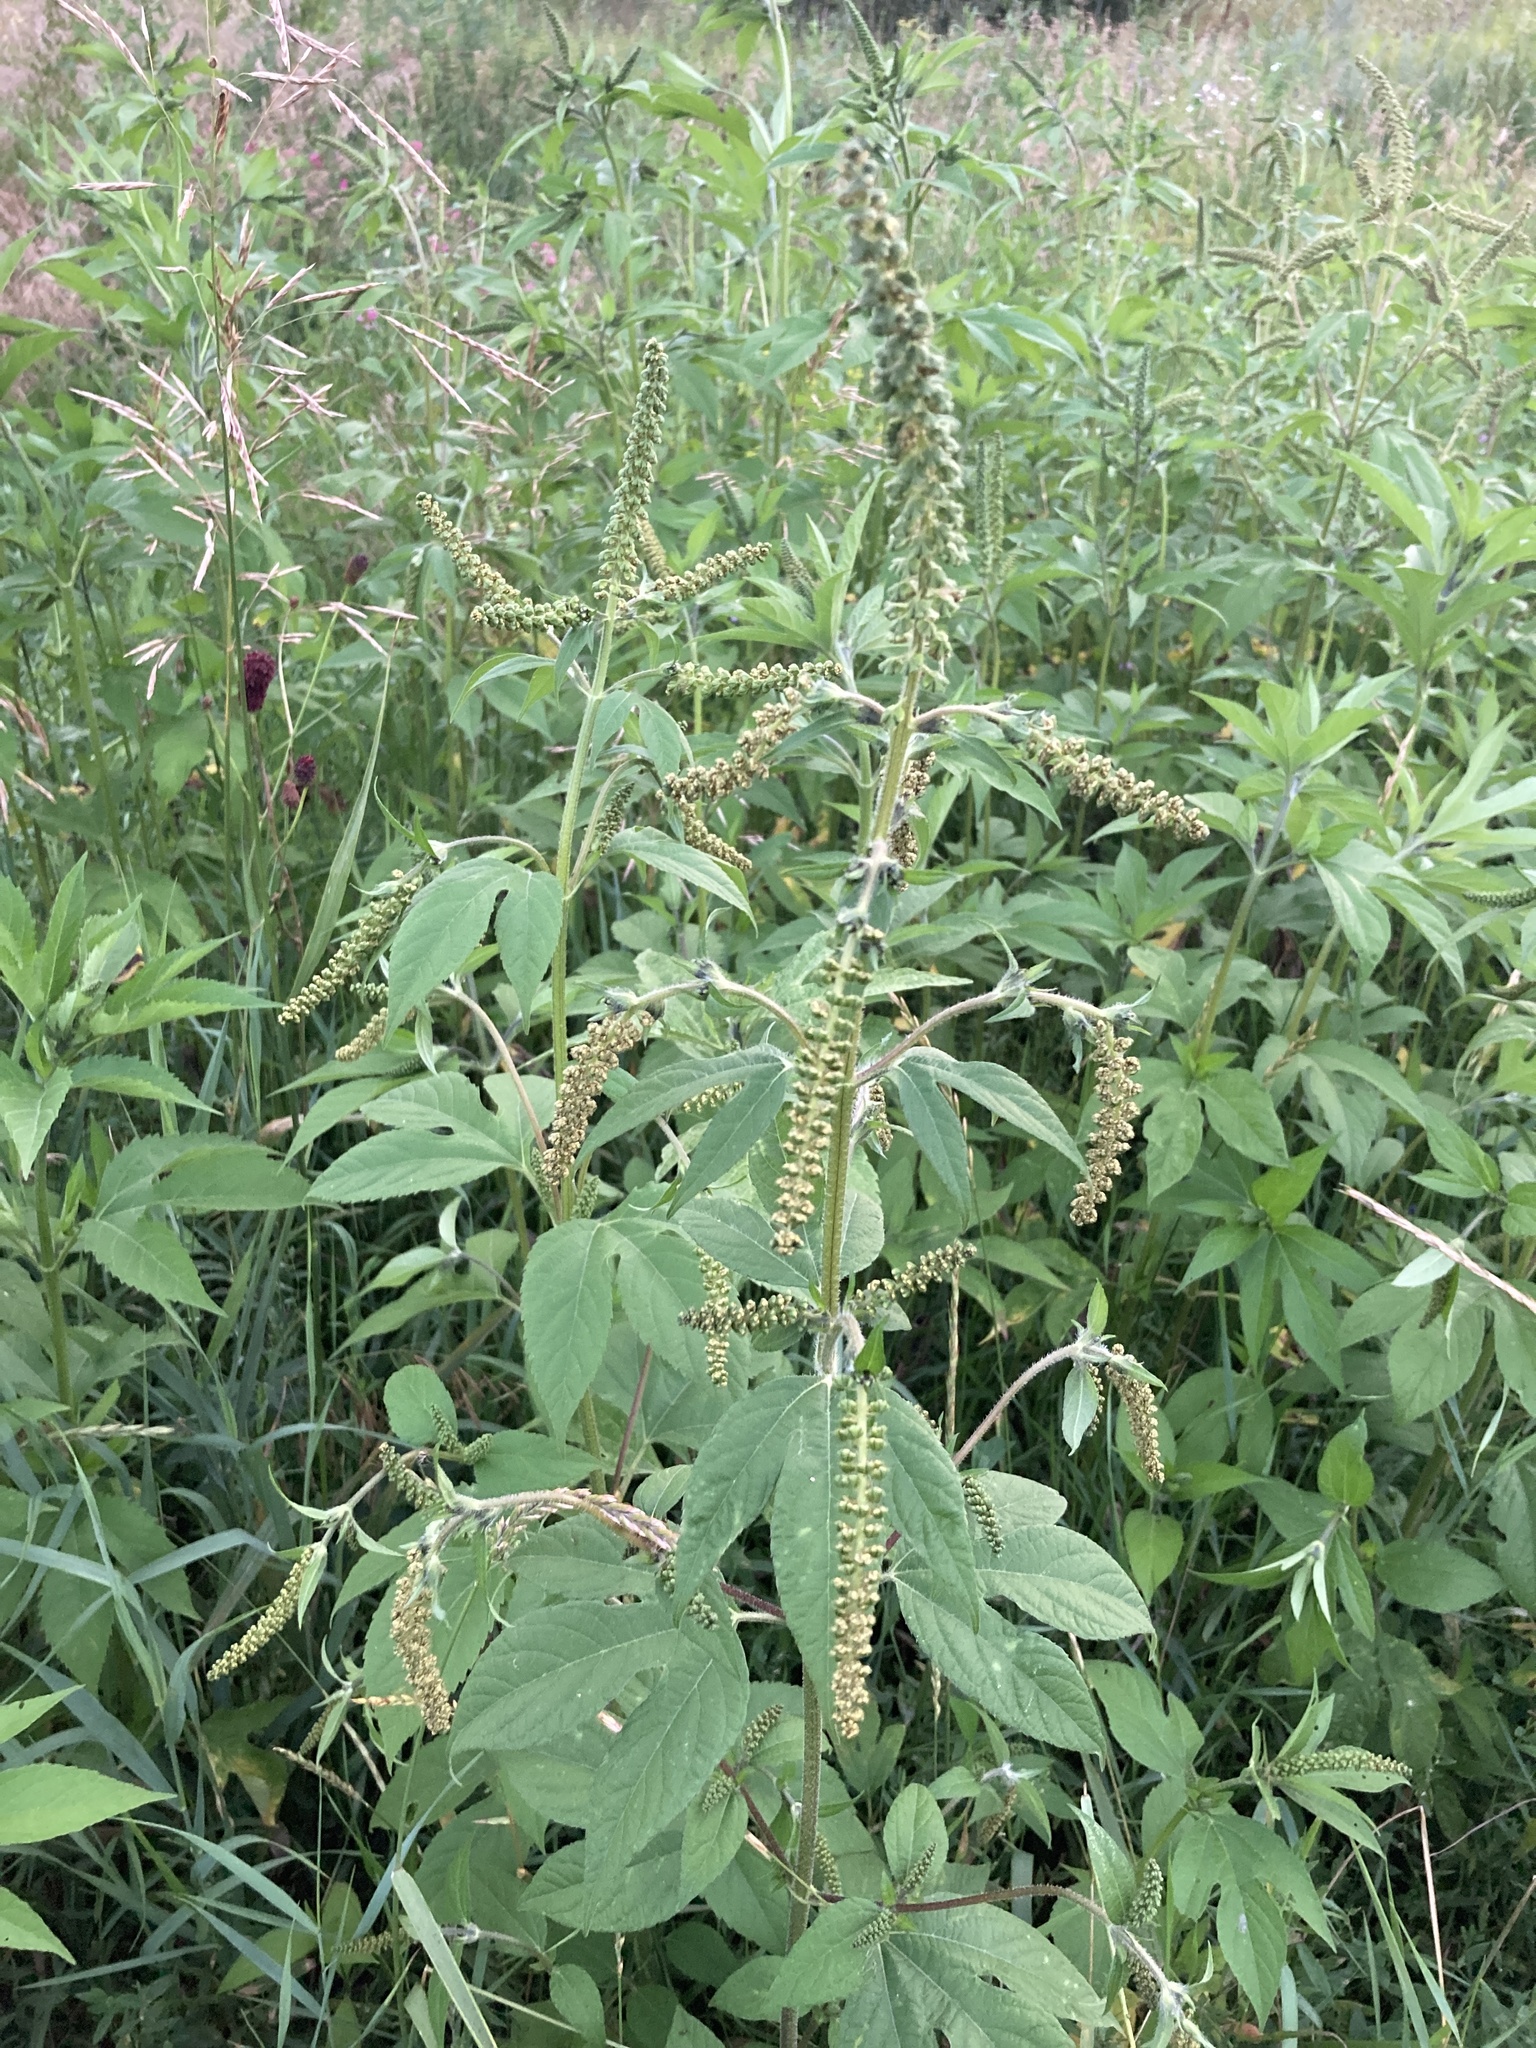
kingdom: Plantae
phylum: Tracheophyta
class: Magnoliopsida
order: Asterales
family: Asteraceae
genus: Ambrosia
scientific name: Ambrosia trifida
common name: Giant ragweed
